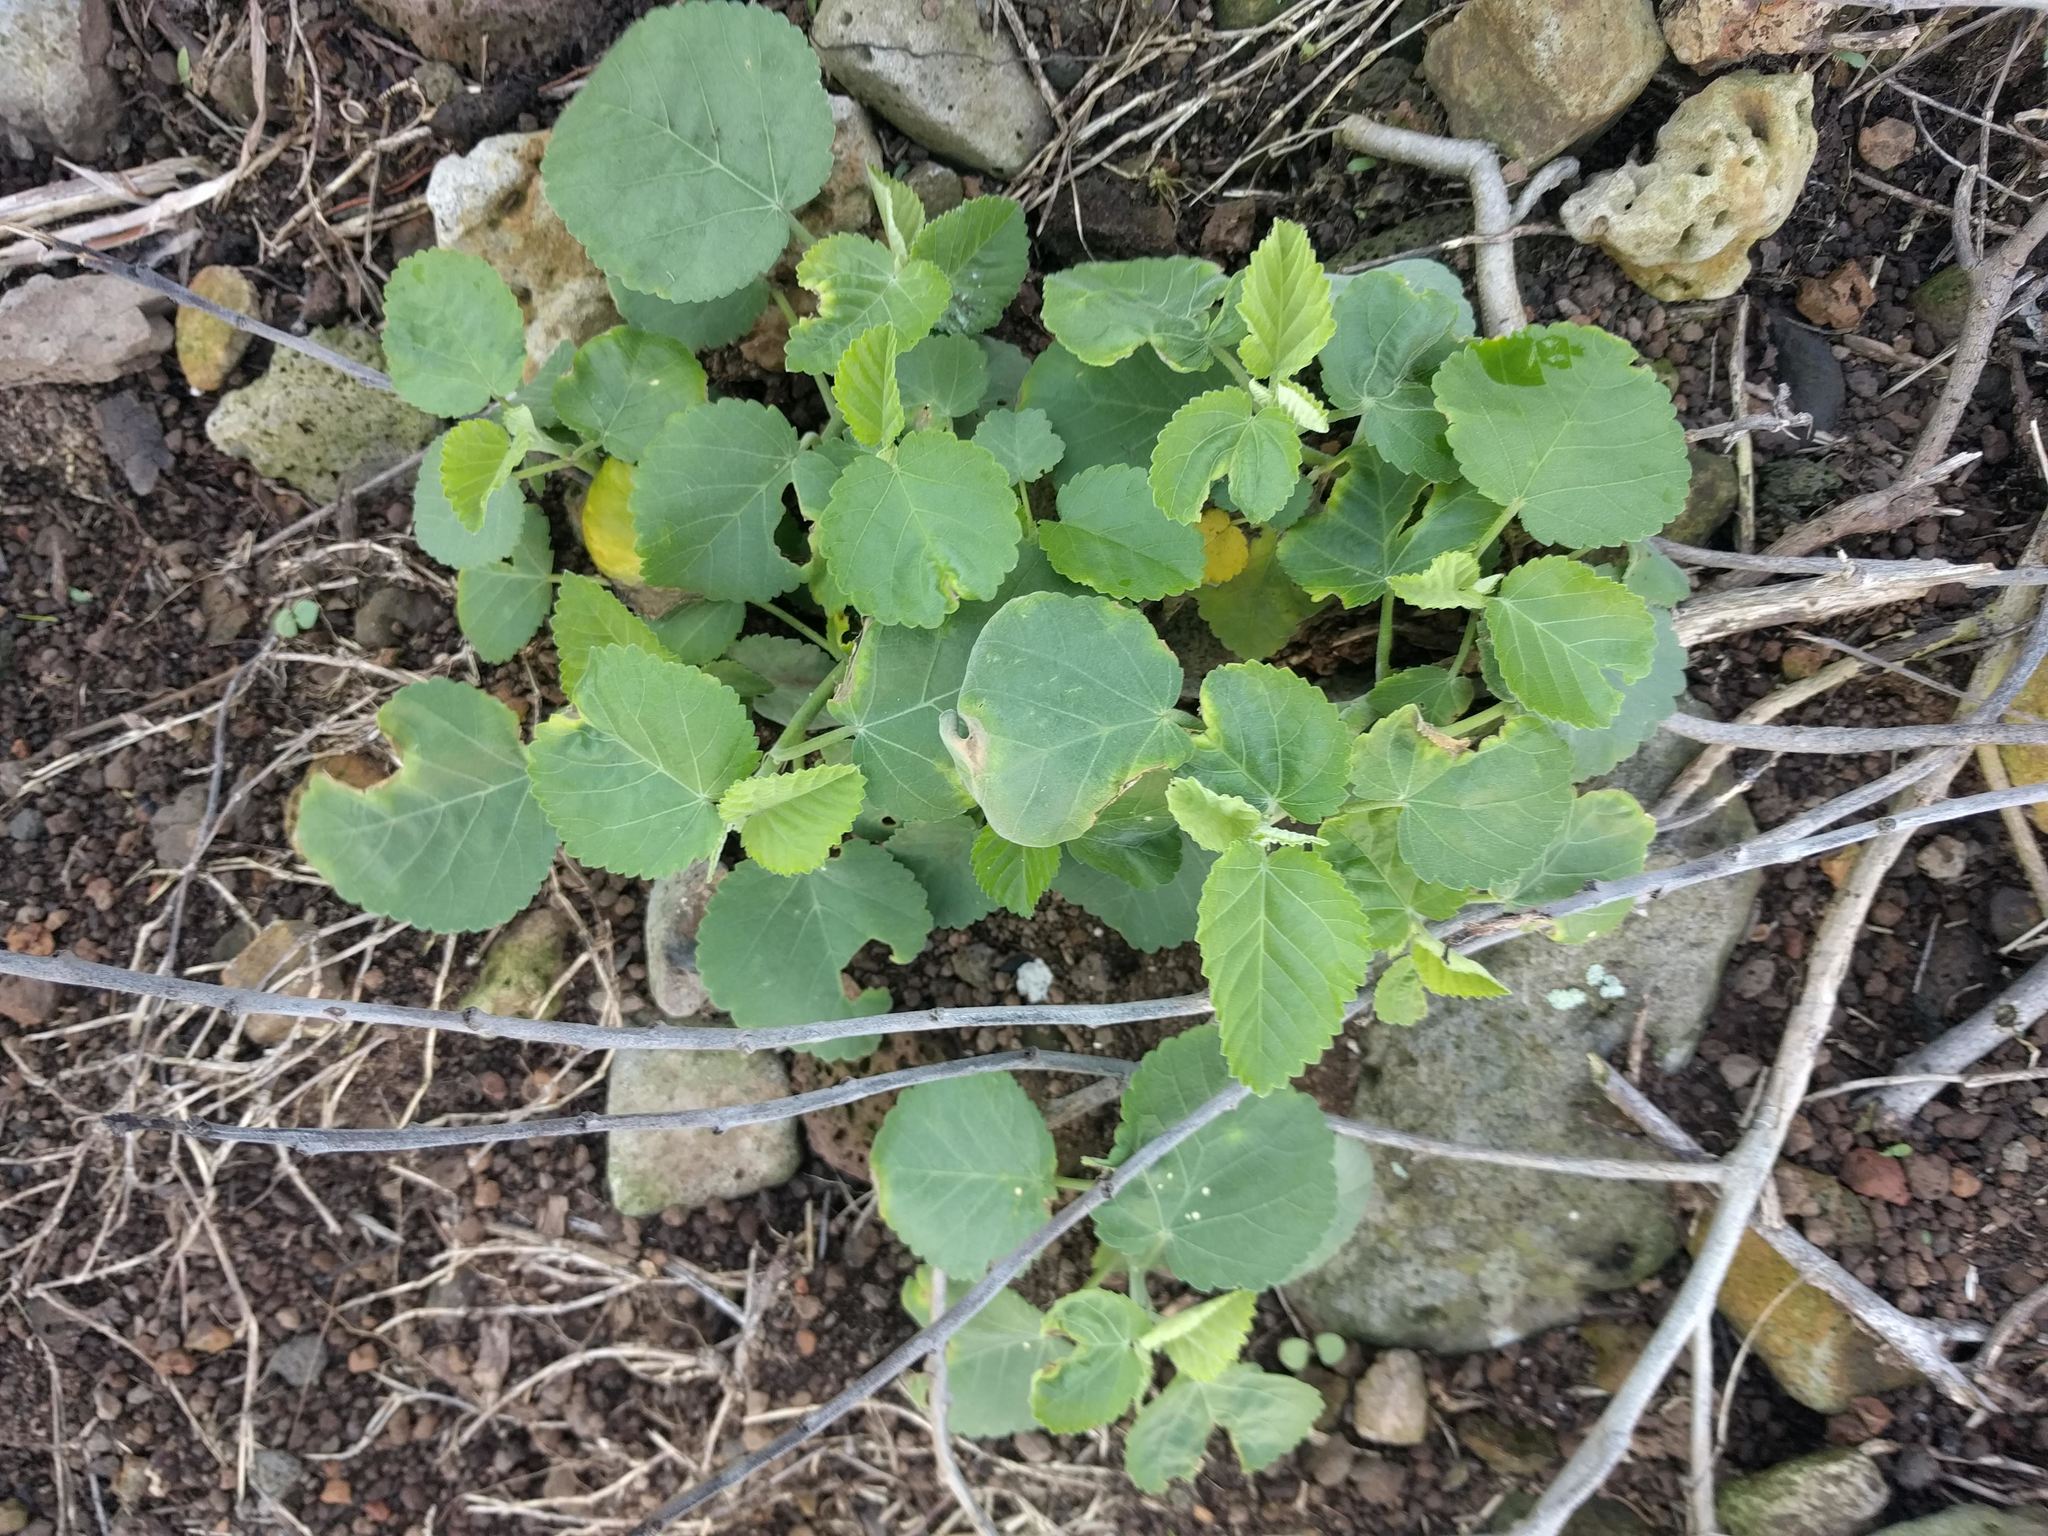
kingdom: Plantae
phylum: Tracheophyta
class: Magnoliopsida
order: Malvales
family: Malvaceae
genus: Sida
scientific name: Sida fallax
